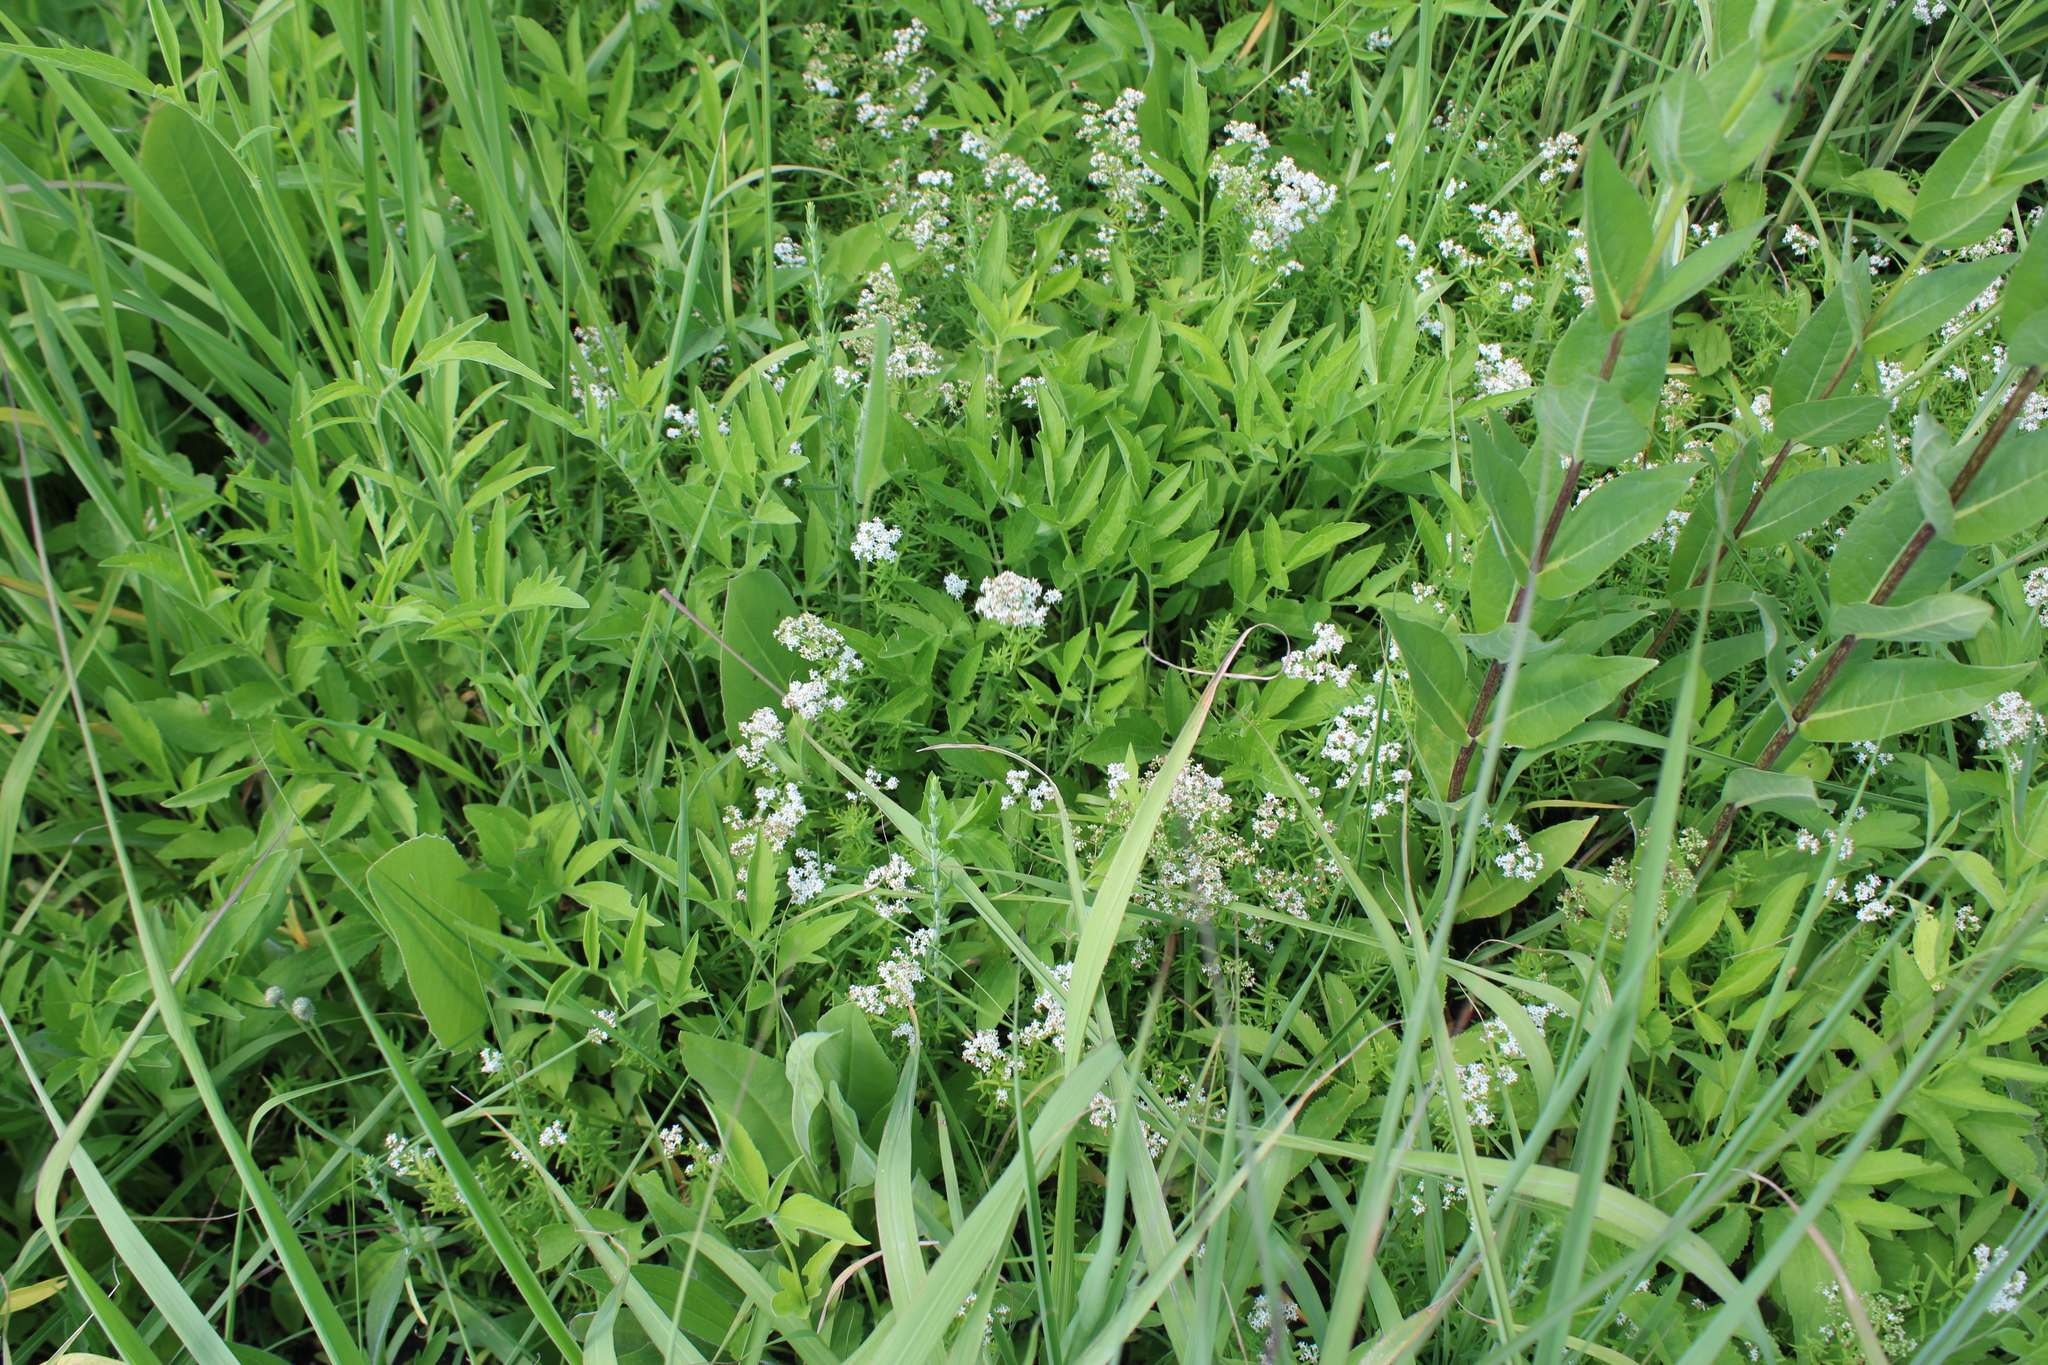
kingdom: Plantae
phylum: Tracheophyta
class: Magnoliopsida
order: Gentianales
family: Rubiaceae
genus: Galium
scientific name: Galium boreale
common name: Northern bedstraw
